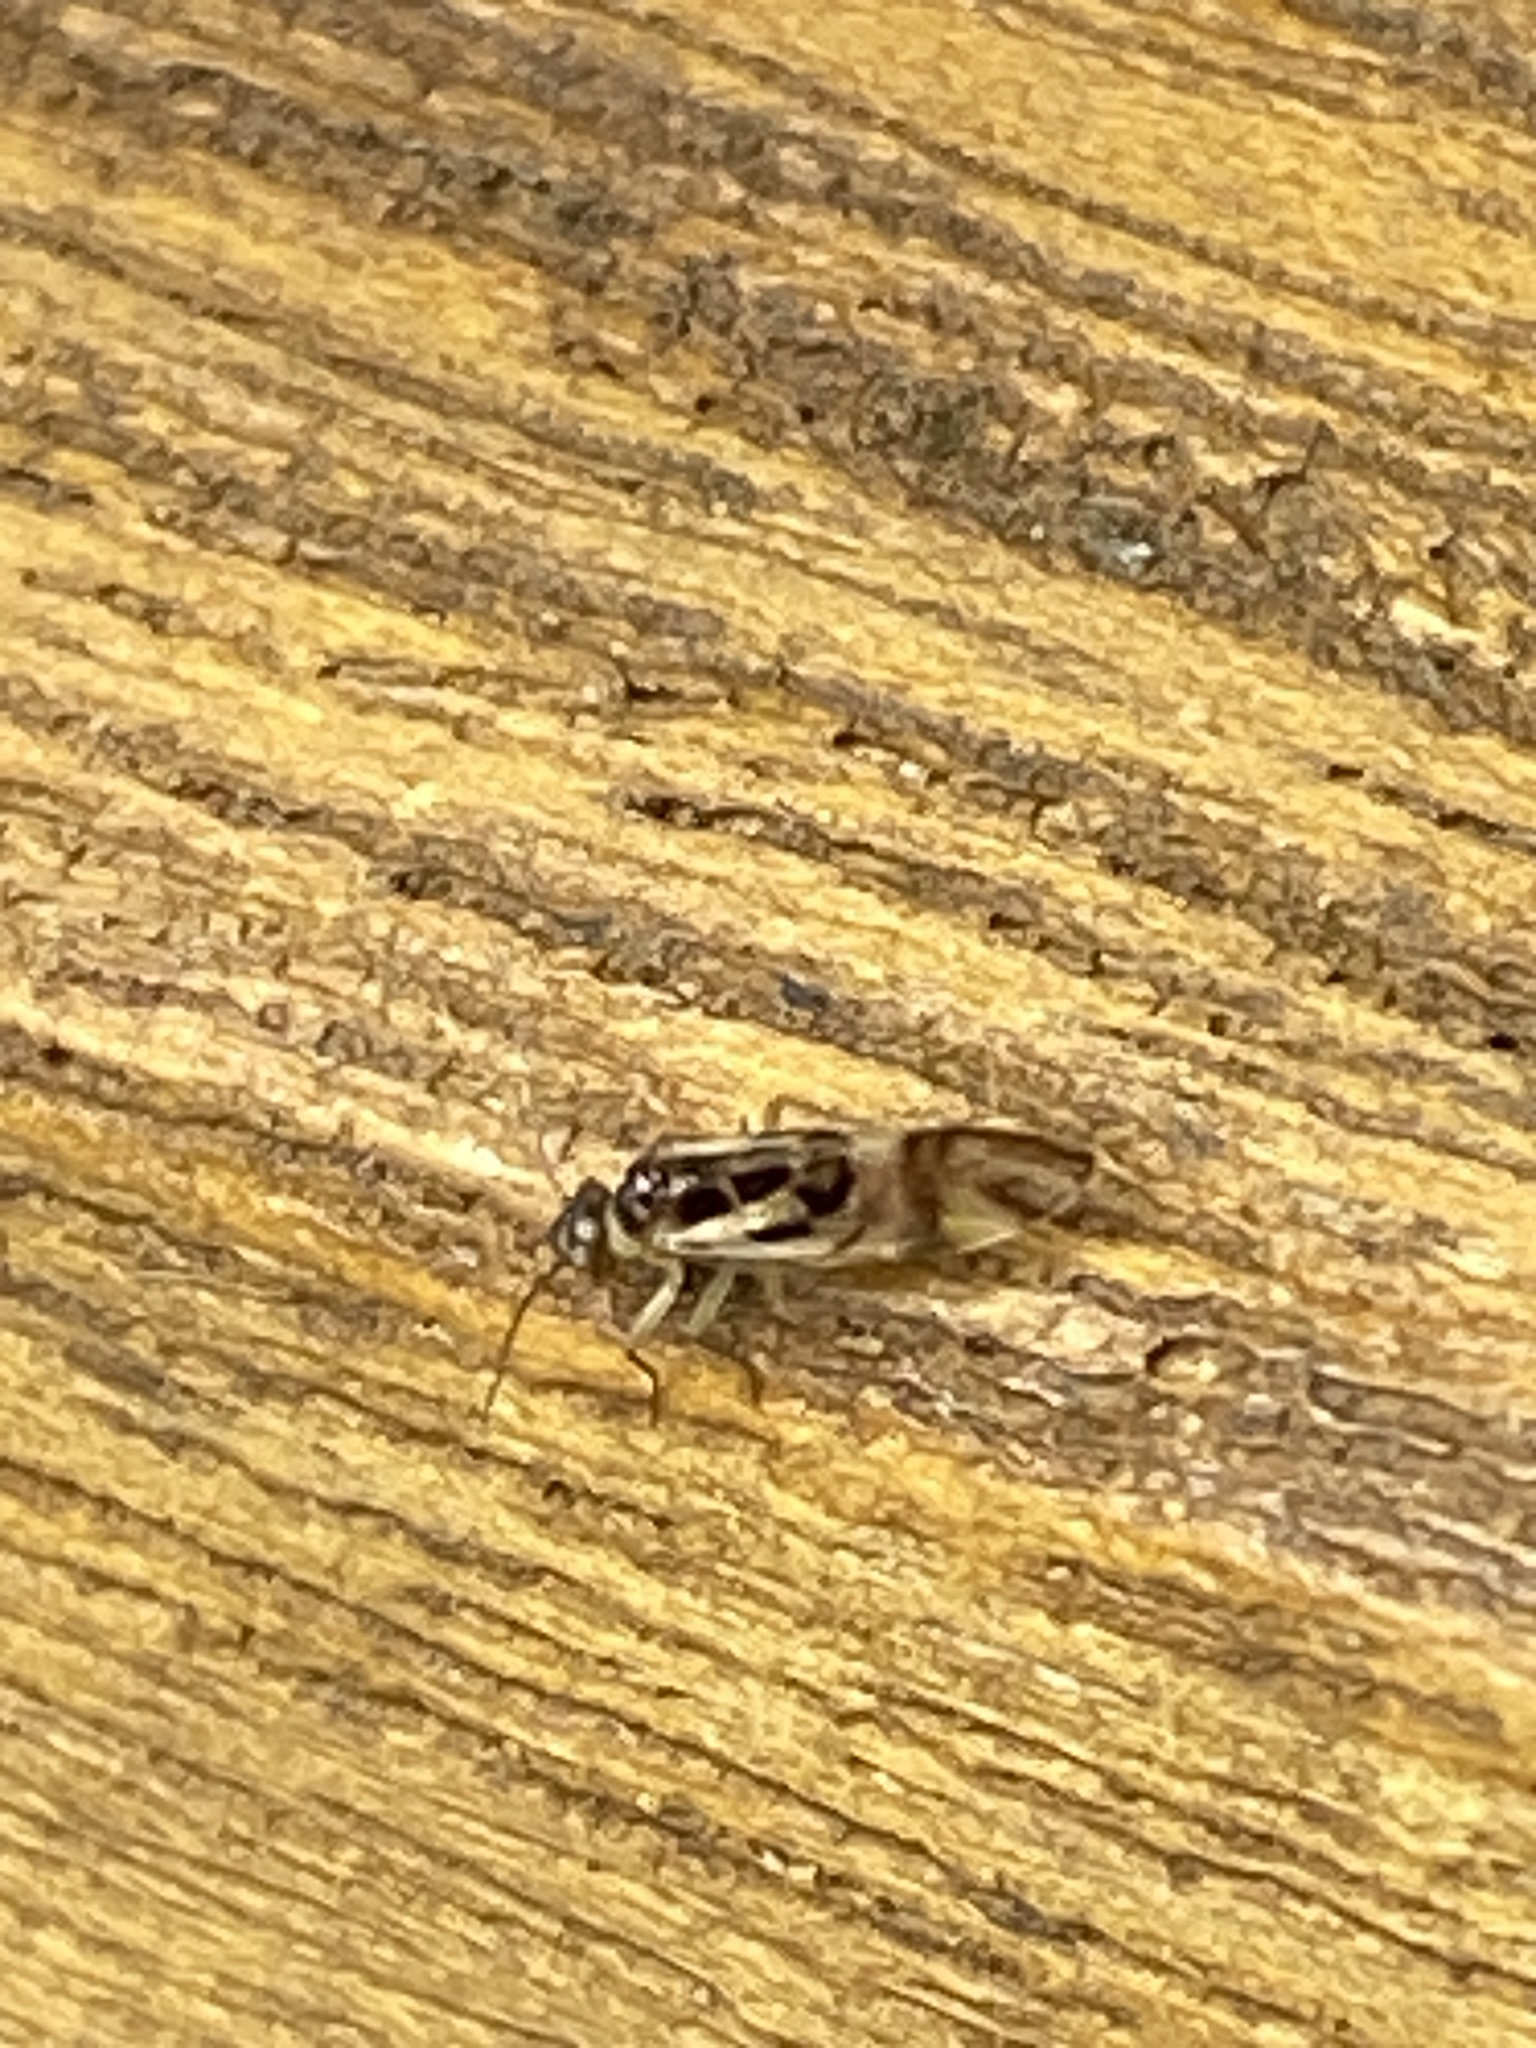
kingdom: Animalia
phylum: Arthropoda
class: Insecta
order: Psocodea
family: Stenopsocidae
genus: Graphopsocus
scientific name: Graphopsocus cruciatus
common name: Lizard bark louse
